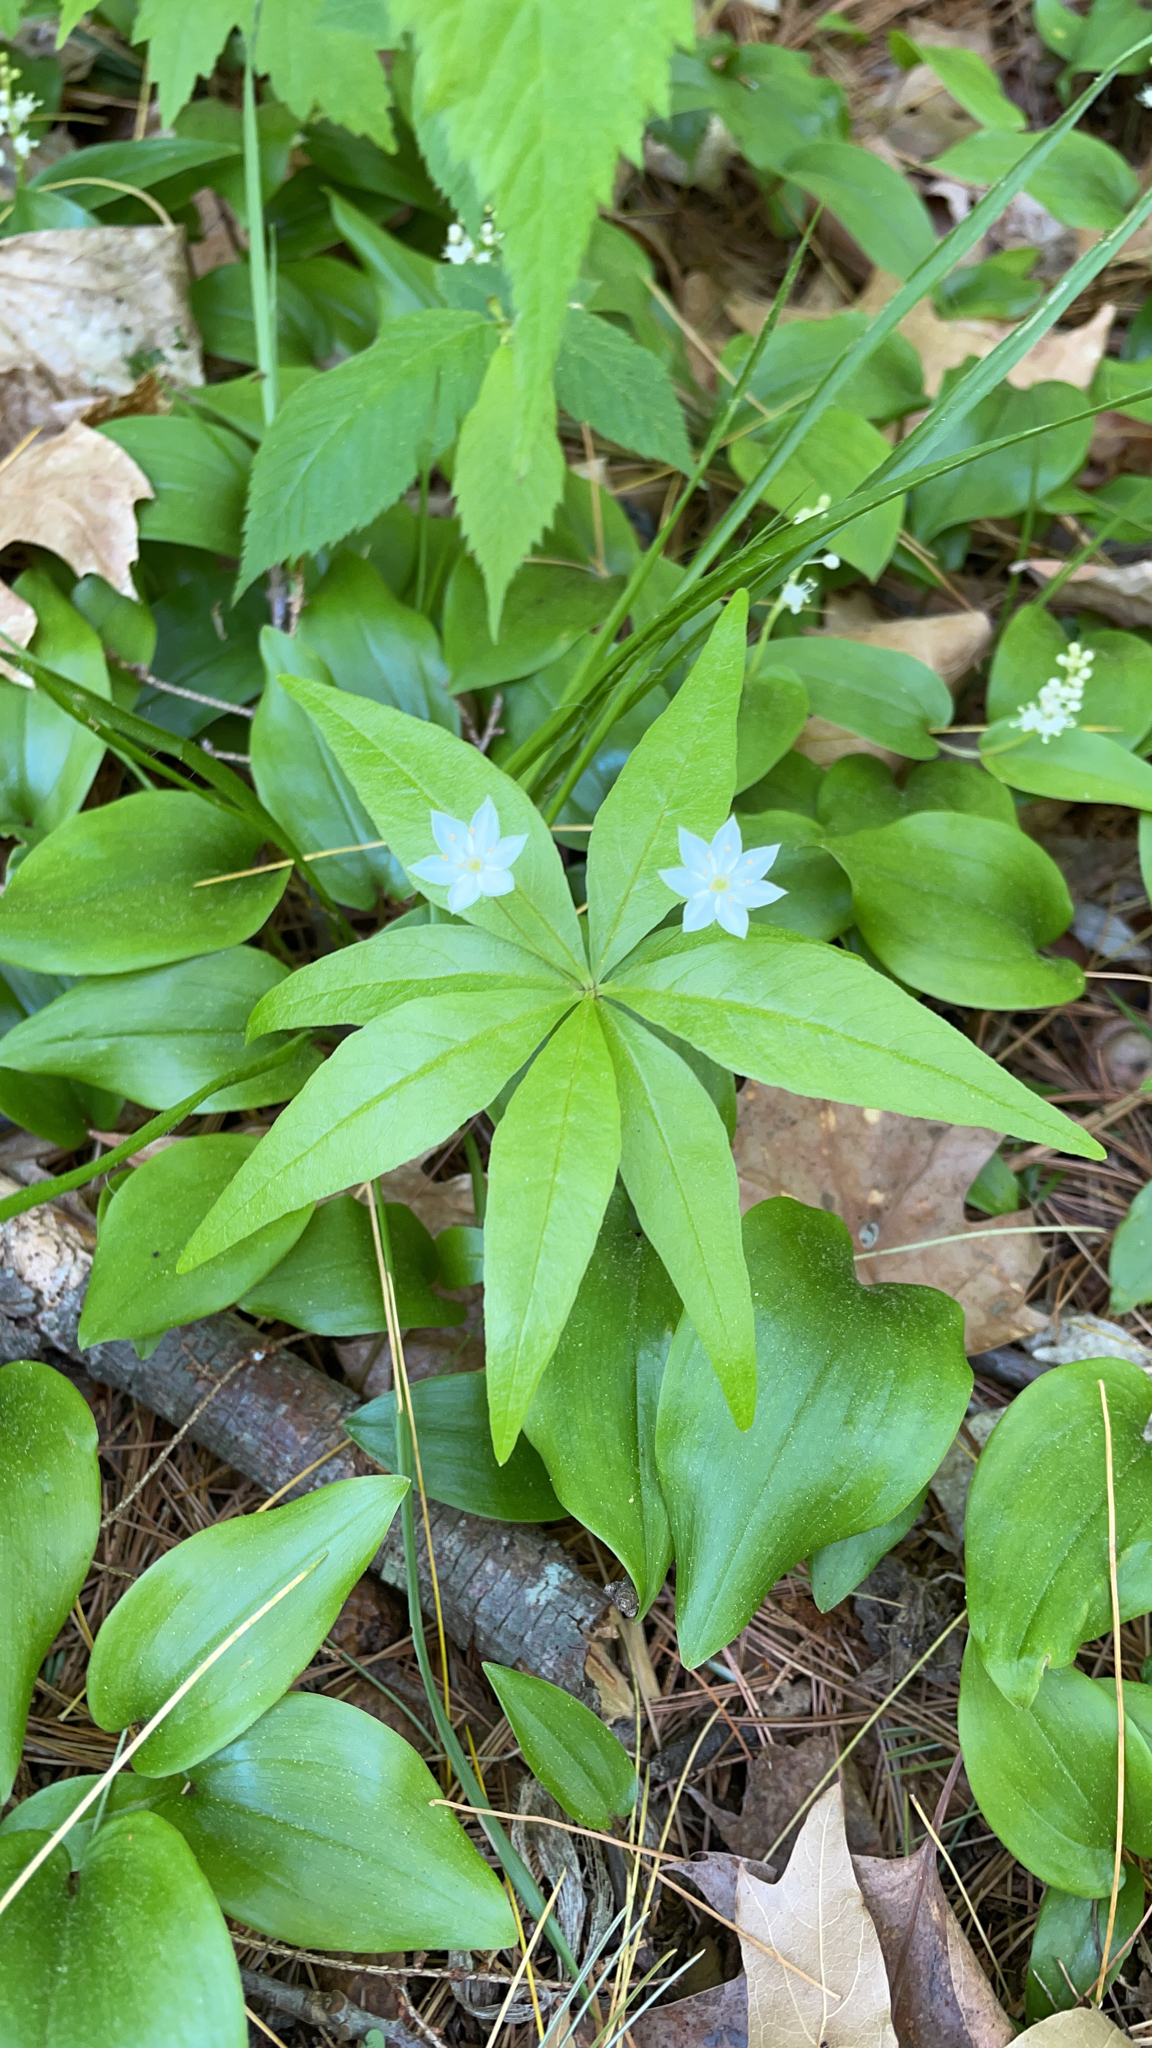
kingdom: Plantae
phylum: Tracheophyta
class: Magnoliopsida
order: Ericales
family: Primulaceae
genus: Lysimachia
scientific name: Lysimachia borealis
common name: American starflower
